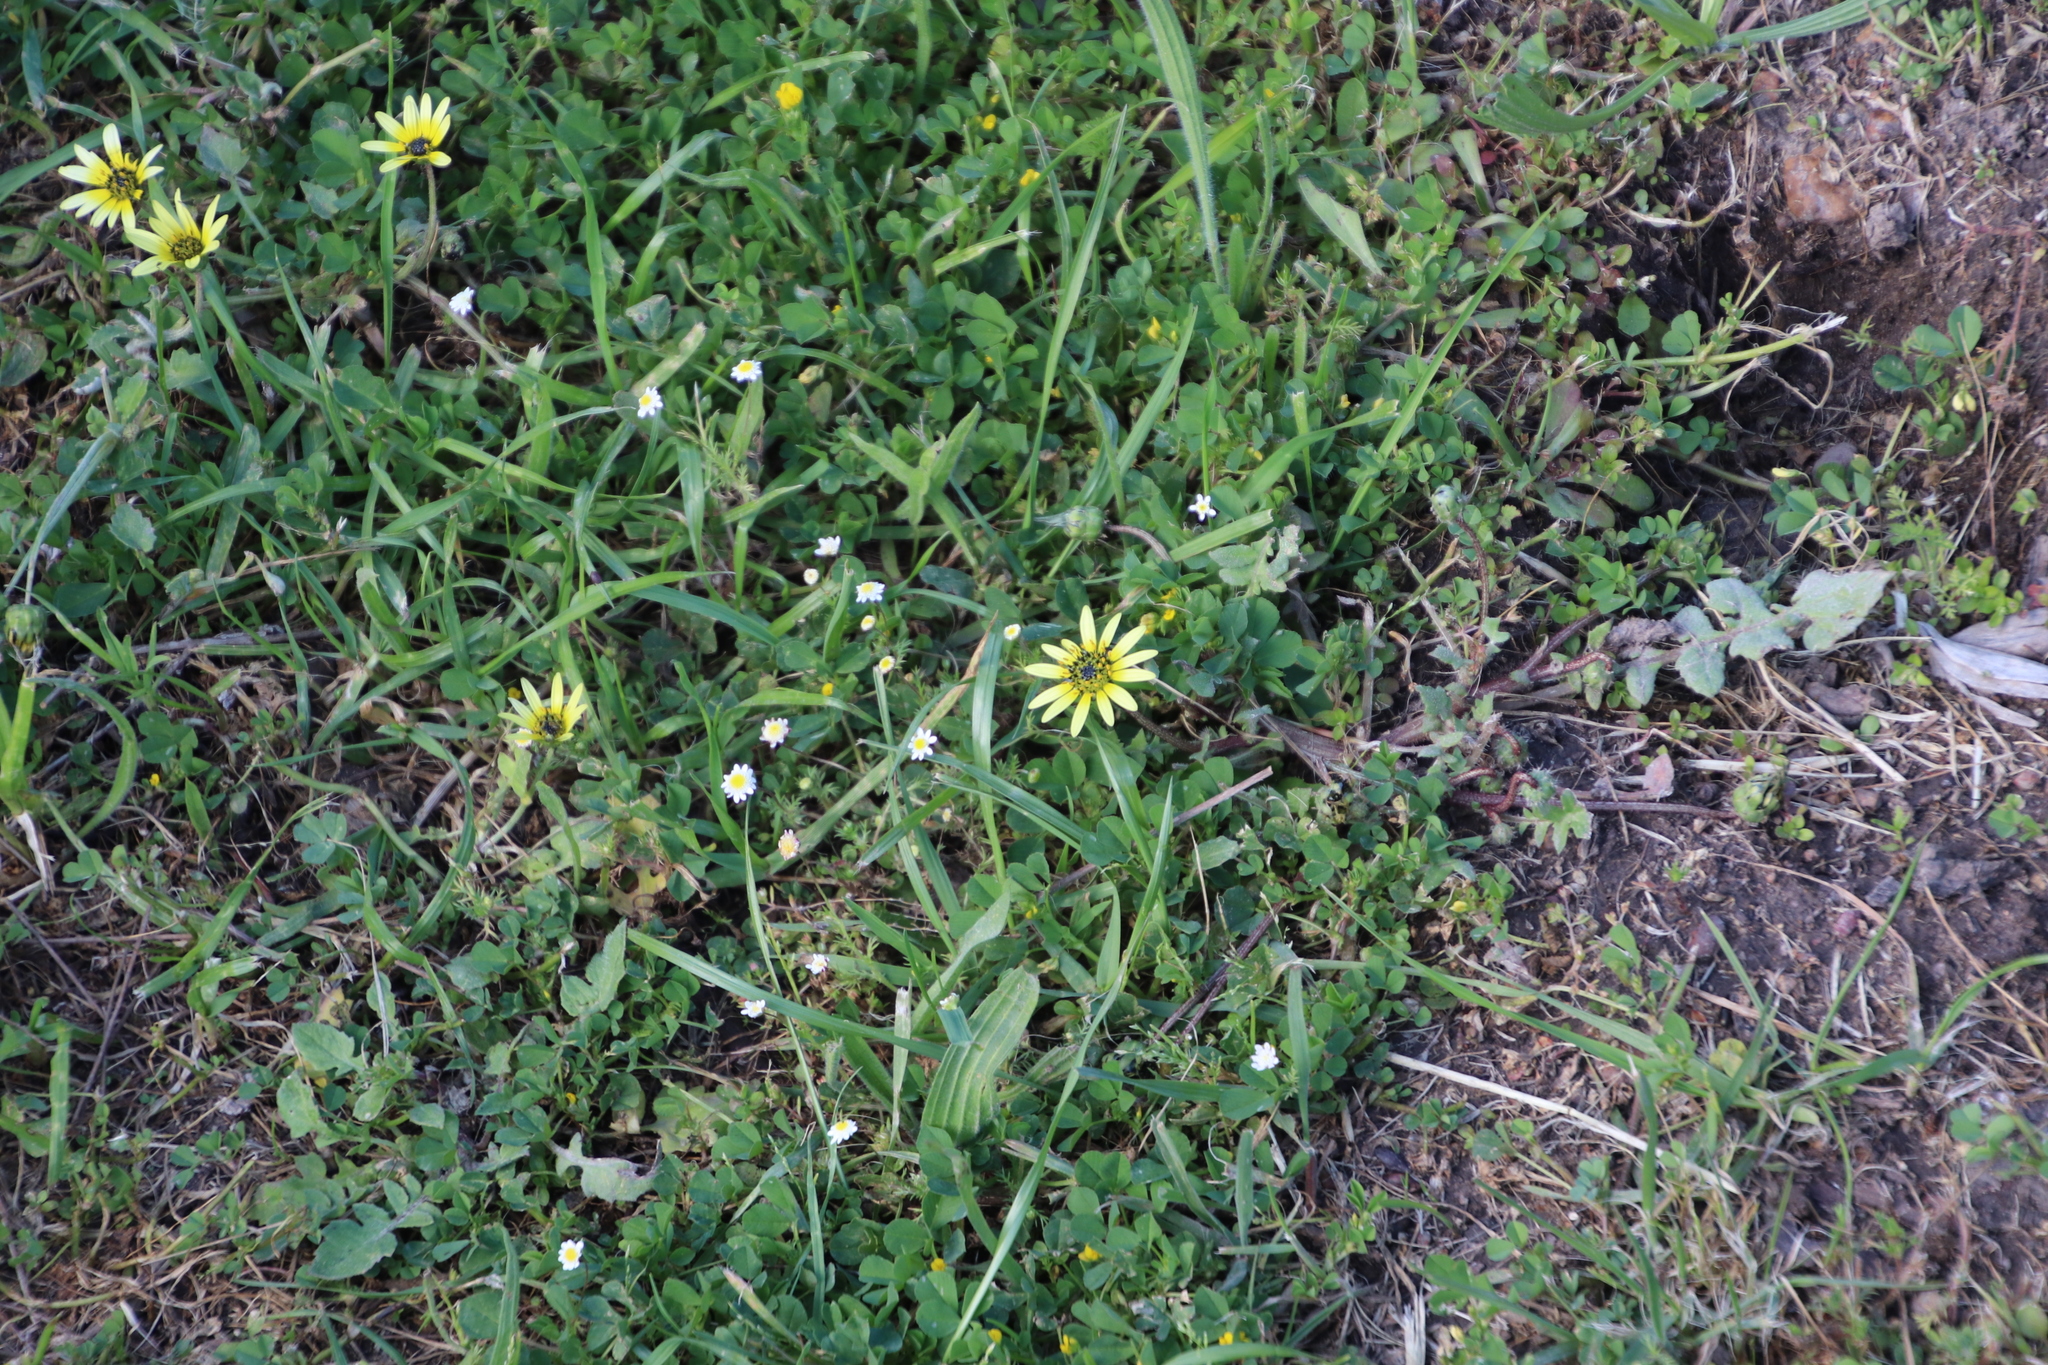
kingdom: Plantae
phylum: Tracheophyta
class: Magnoliopsida
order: Asterales
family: Asteraceae
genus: Arctotheca
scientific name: Arctotheca calendula
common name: Capeweed
